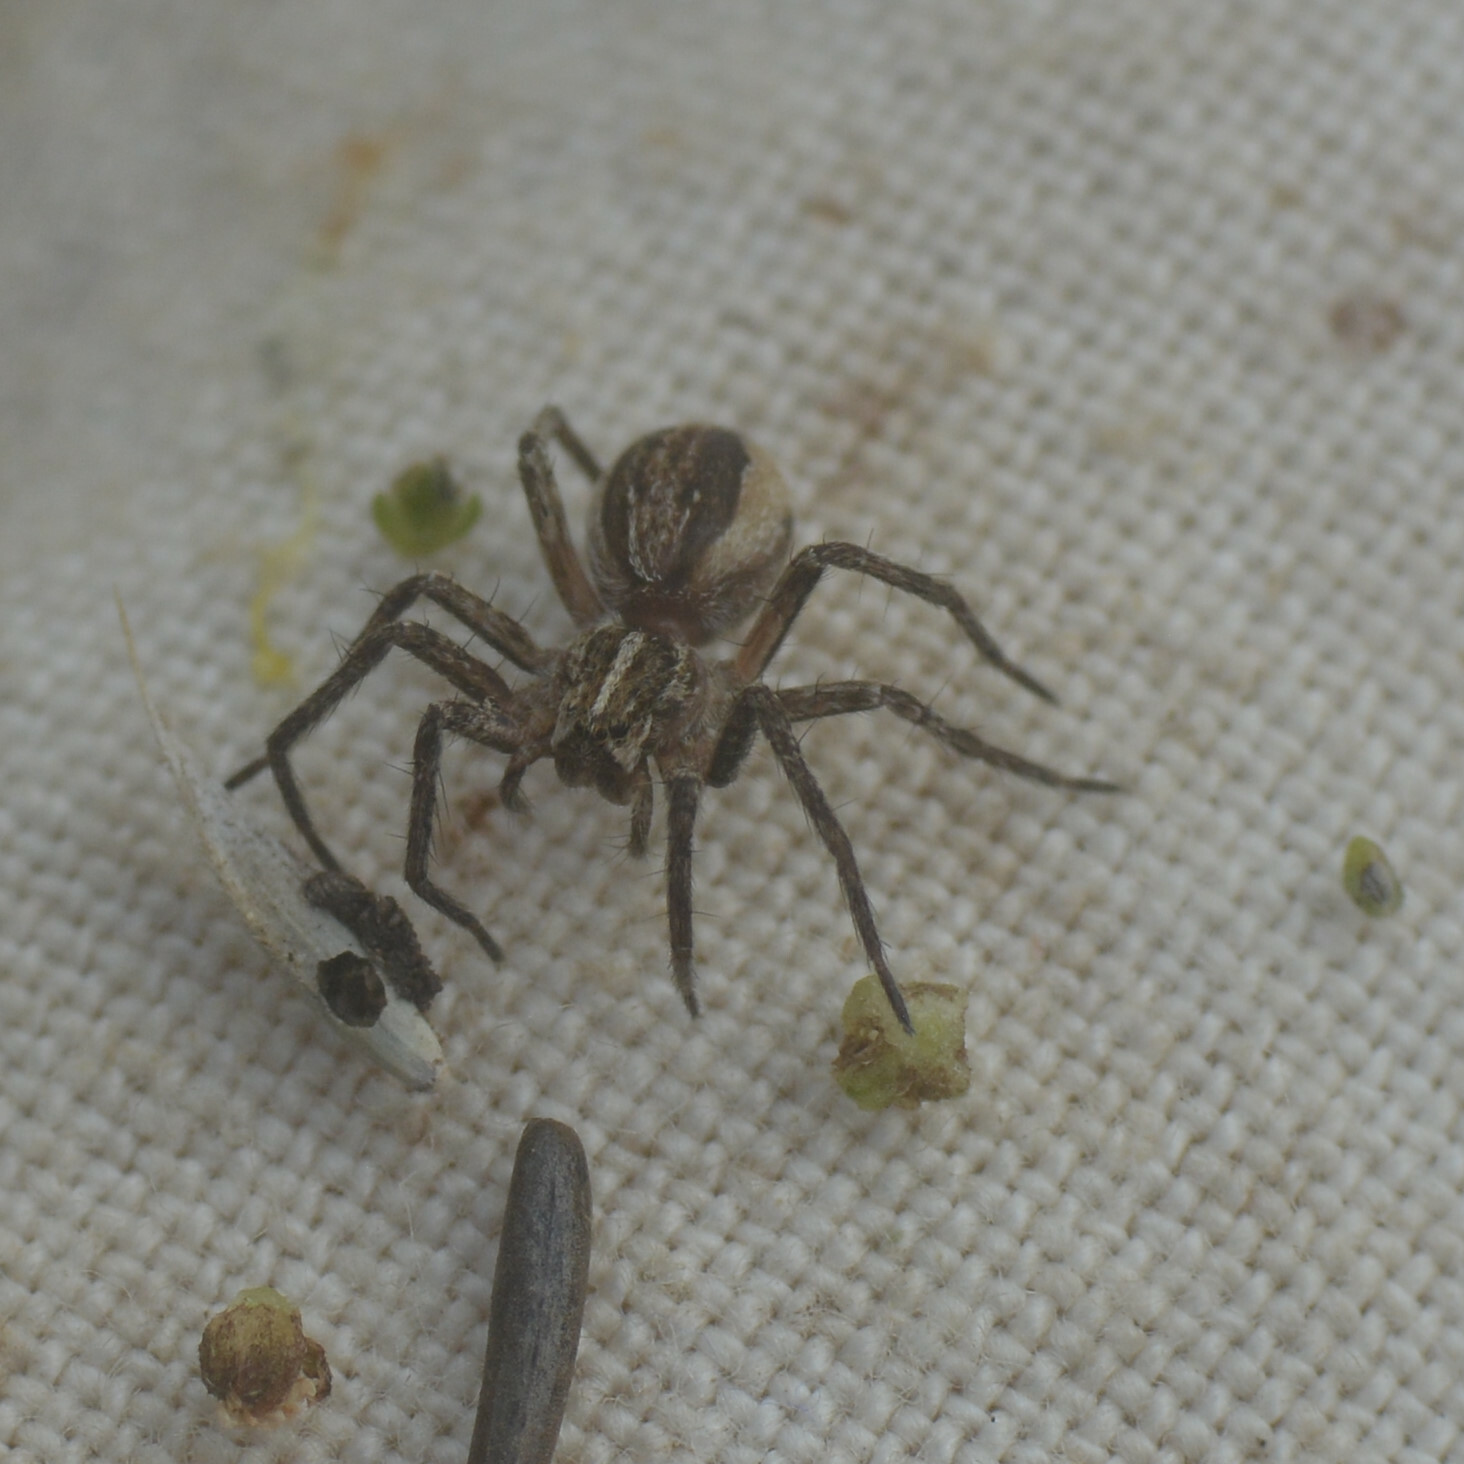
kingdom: Animalia
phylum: Arthropoda
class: Arachnida
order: Araneae
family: Pisauridae
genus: Pisaura
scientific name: Pisaura mirabilis
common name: Tent spider
